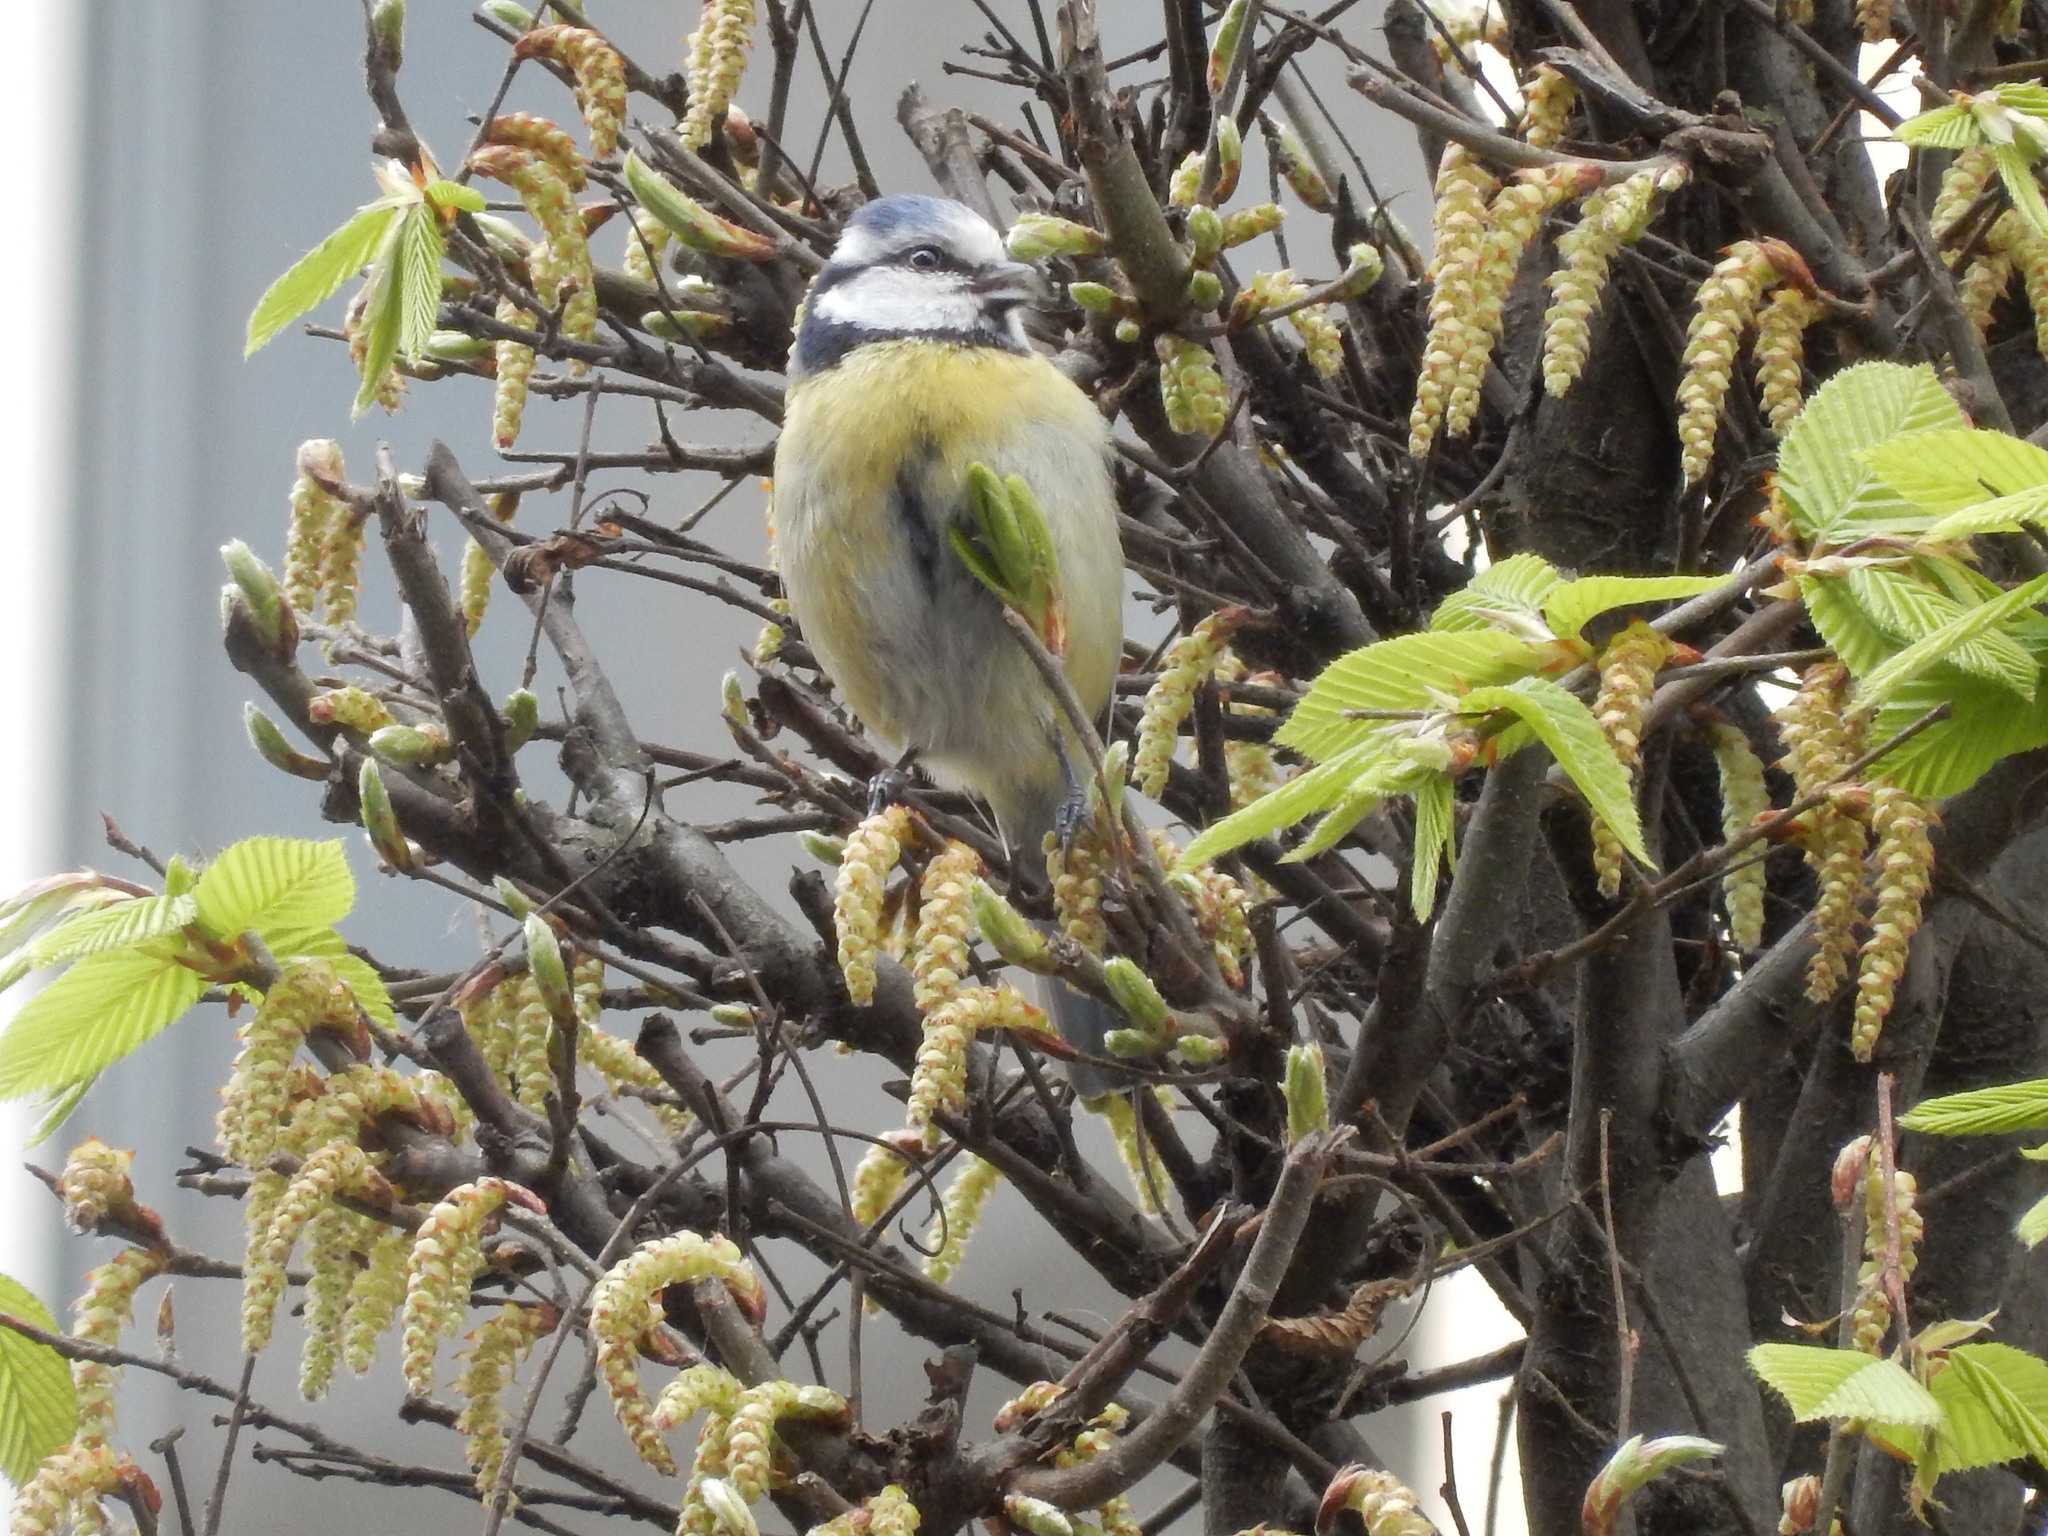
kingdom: Animalia
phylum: Chordata
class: Aves
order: Passeriformes
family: Paridae
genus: Cyanistes
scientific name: Cyanistes caeruleus
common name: Eurasian blue tit
